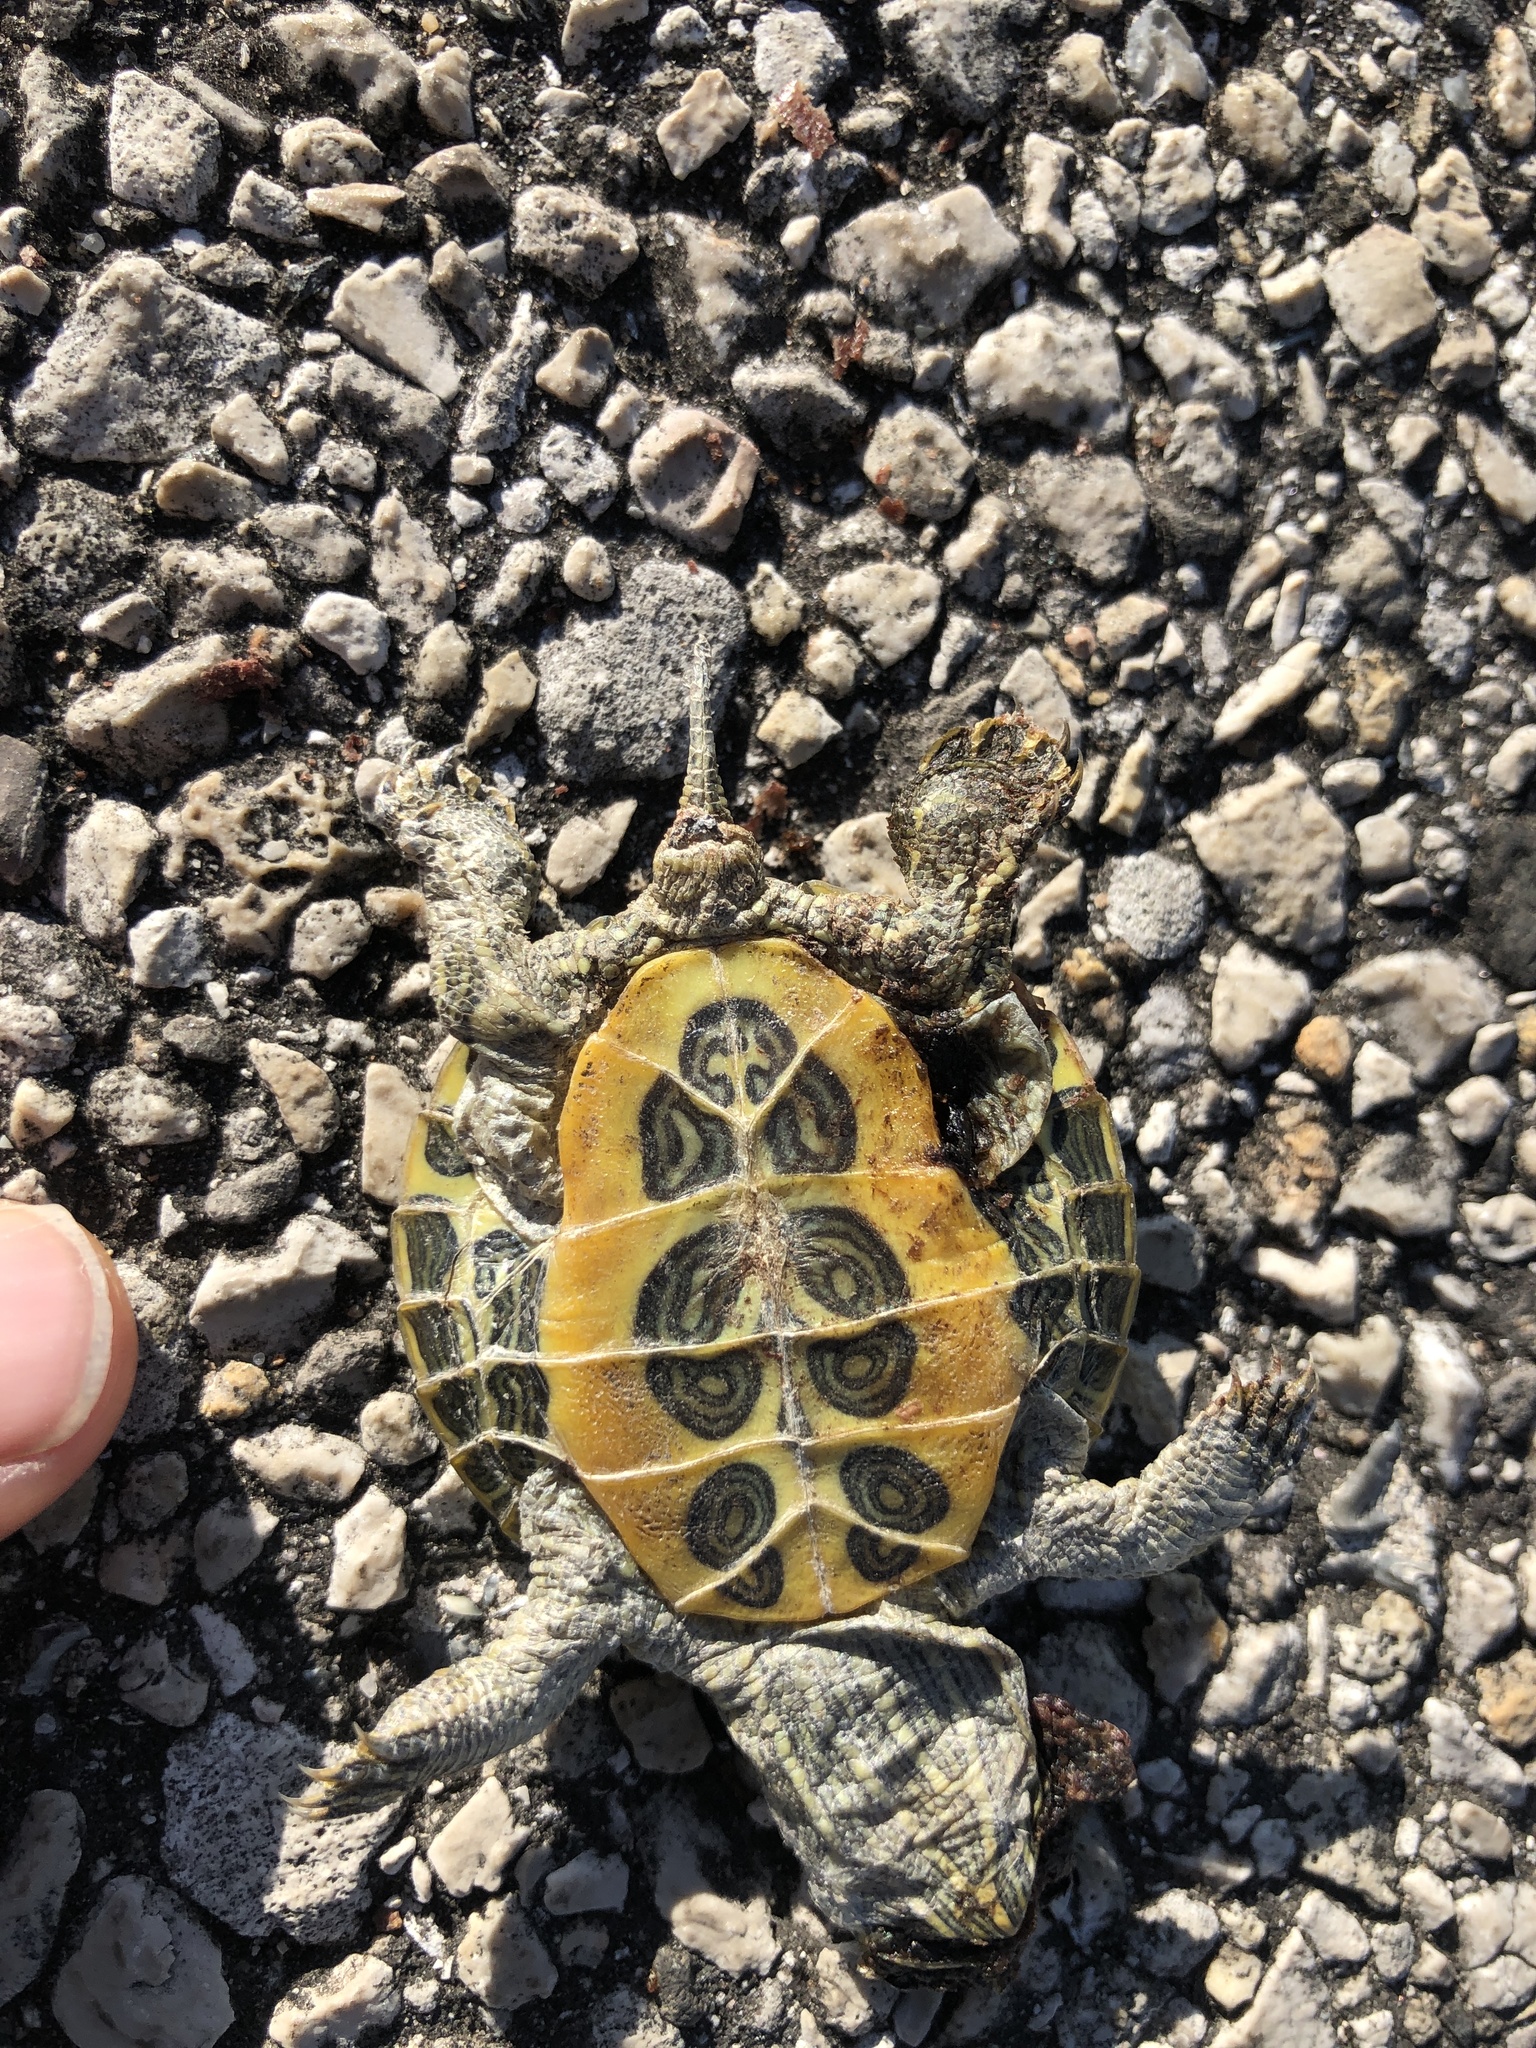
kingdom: Animalia
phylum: Chordata
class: Testudines
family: Emydidae
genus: Trachemys
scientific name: Trachemys scripta
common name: Slider
